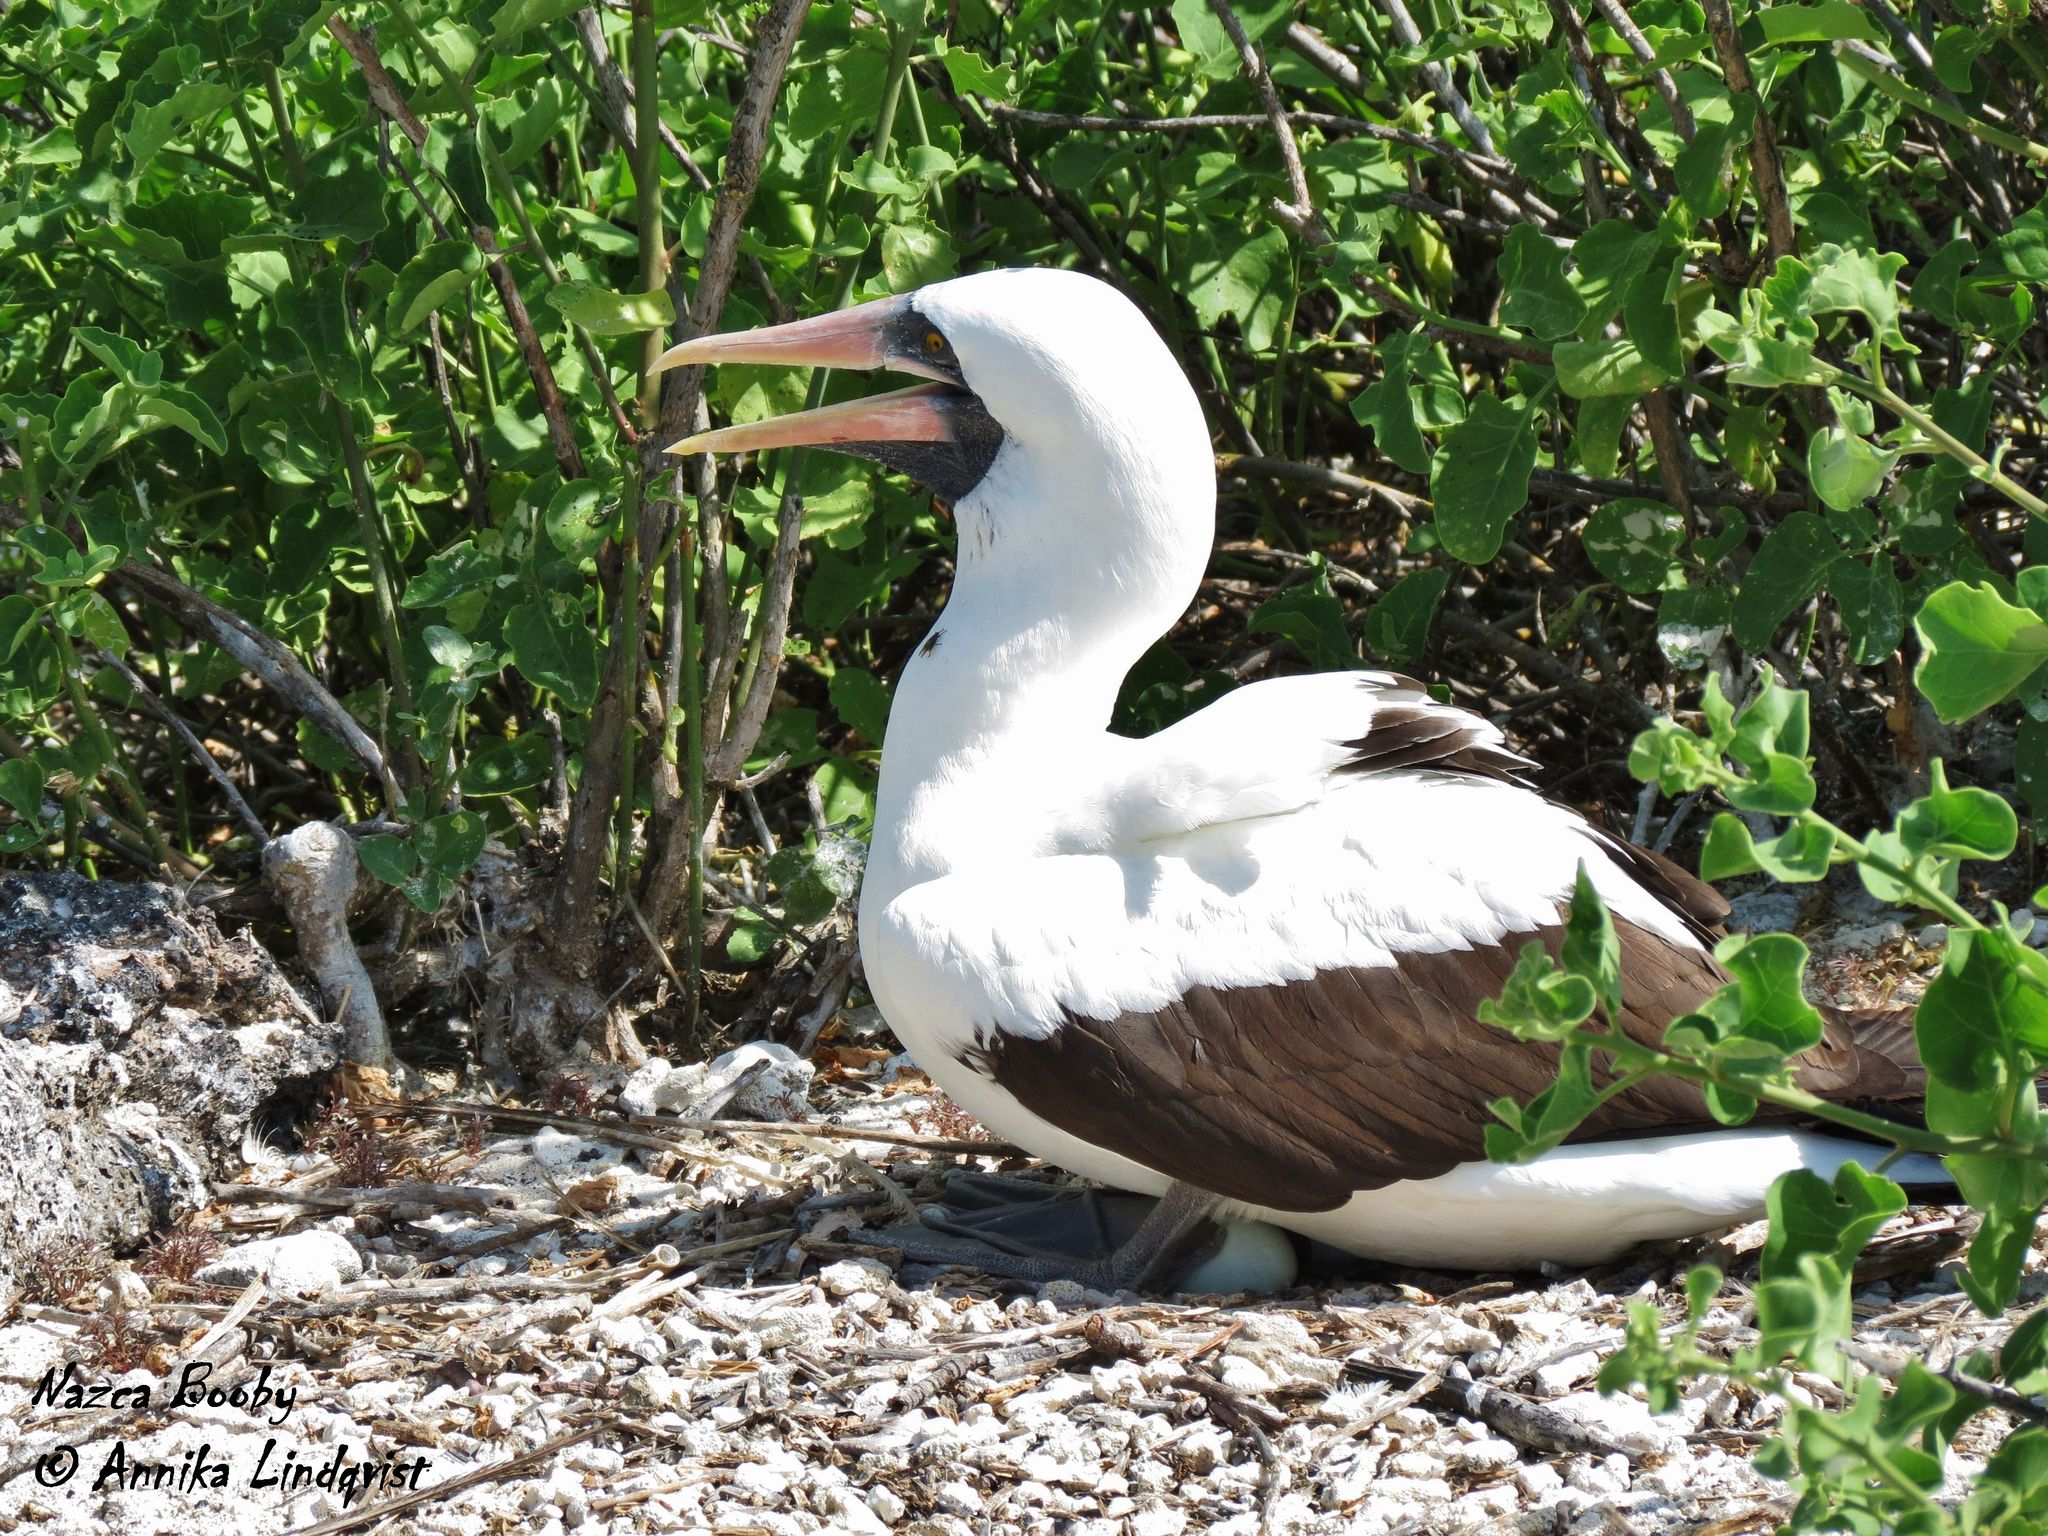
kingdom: Animalia
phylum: Chordata
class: Aves
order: Suliformes
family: Sulidae
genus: Sula
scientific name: Sula granti
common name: Nazca booby
